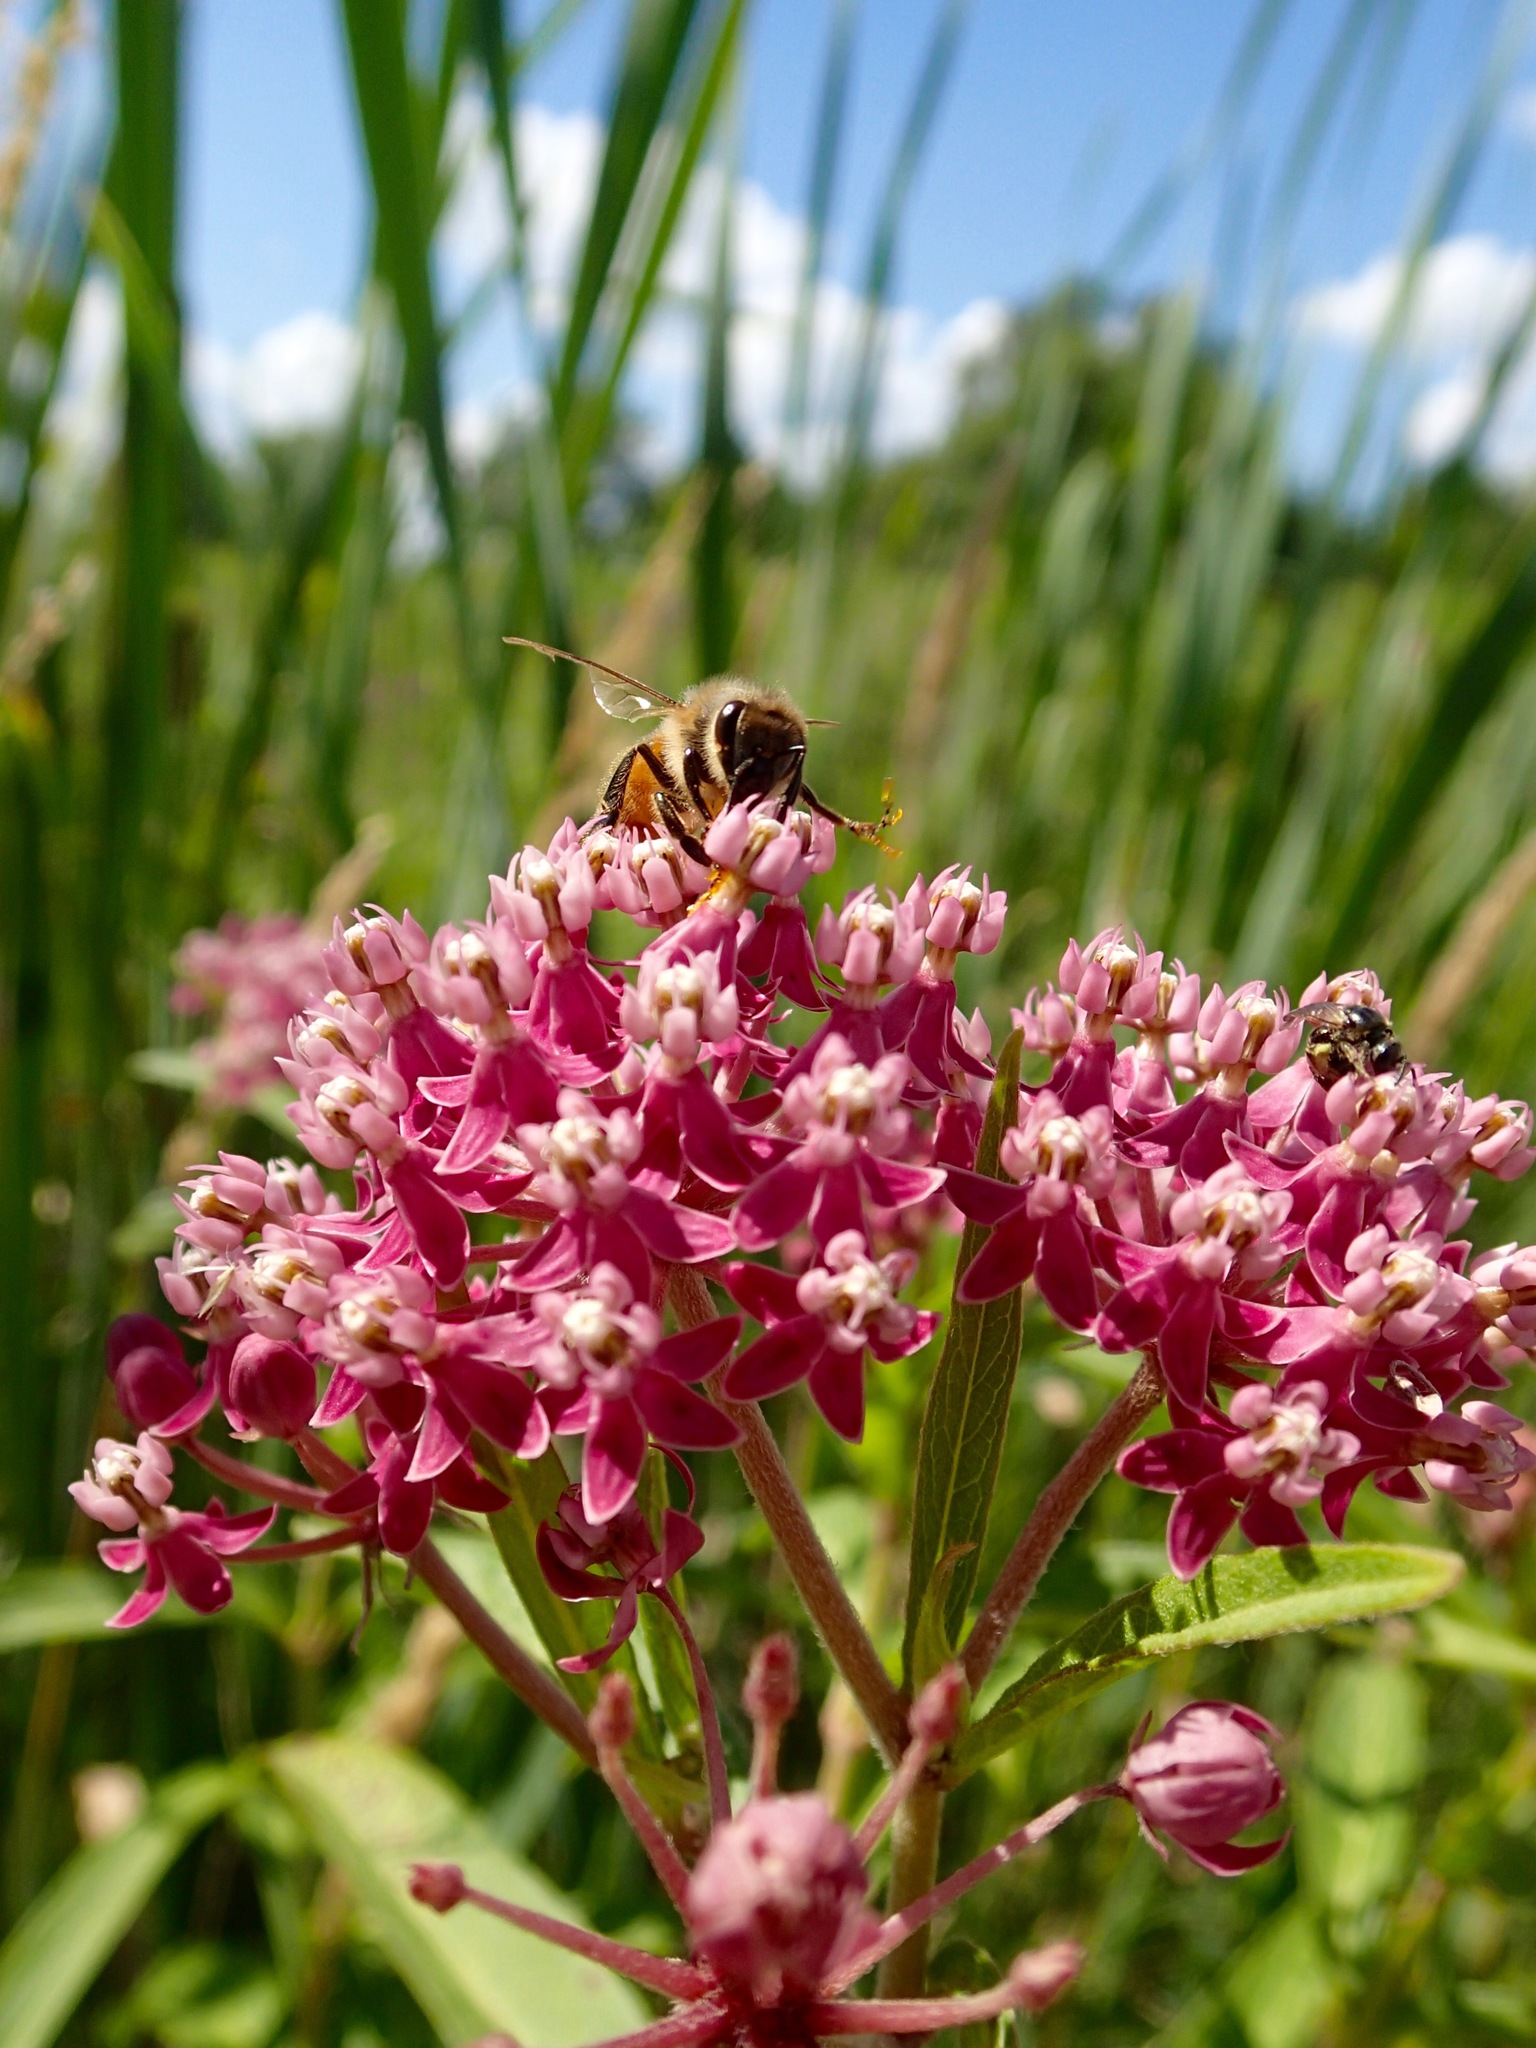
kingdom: Animalia
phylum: Arthropoda
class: Insecta
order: Hymenoptera
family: Apidae
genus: Apis
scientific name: Apis mellifera
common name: Honey bee
